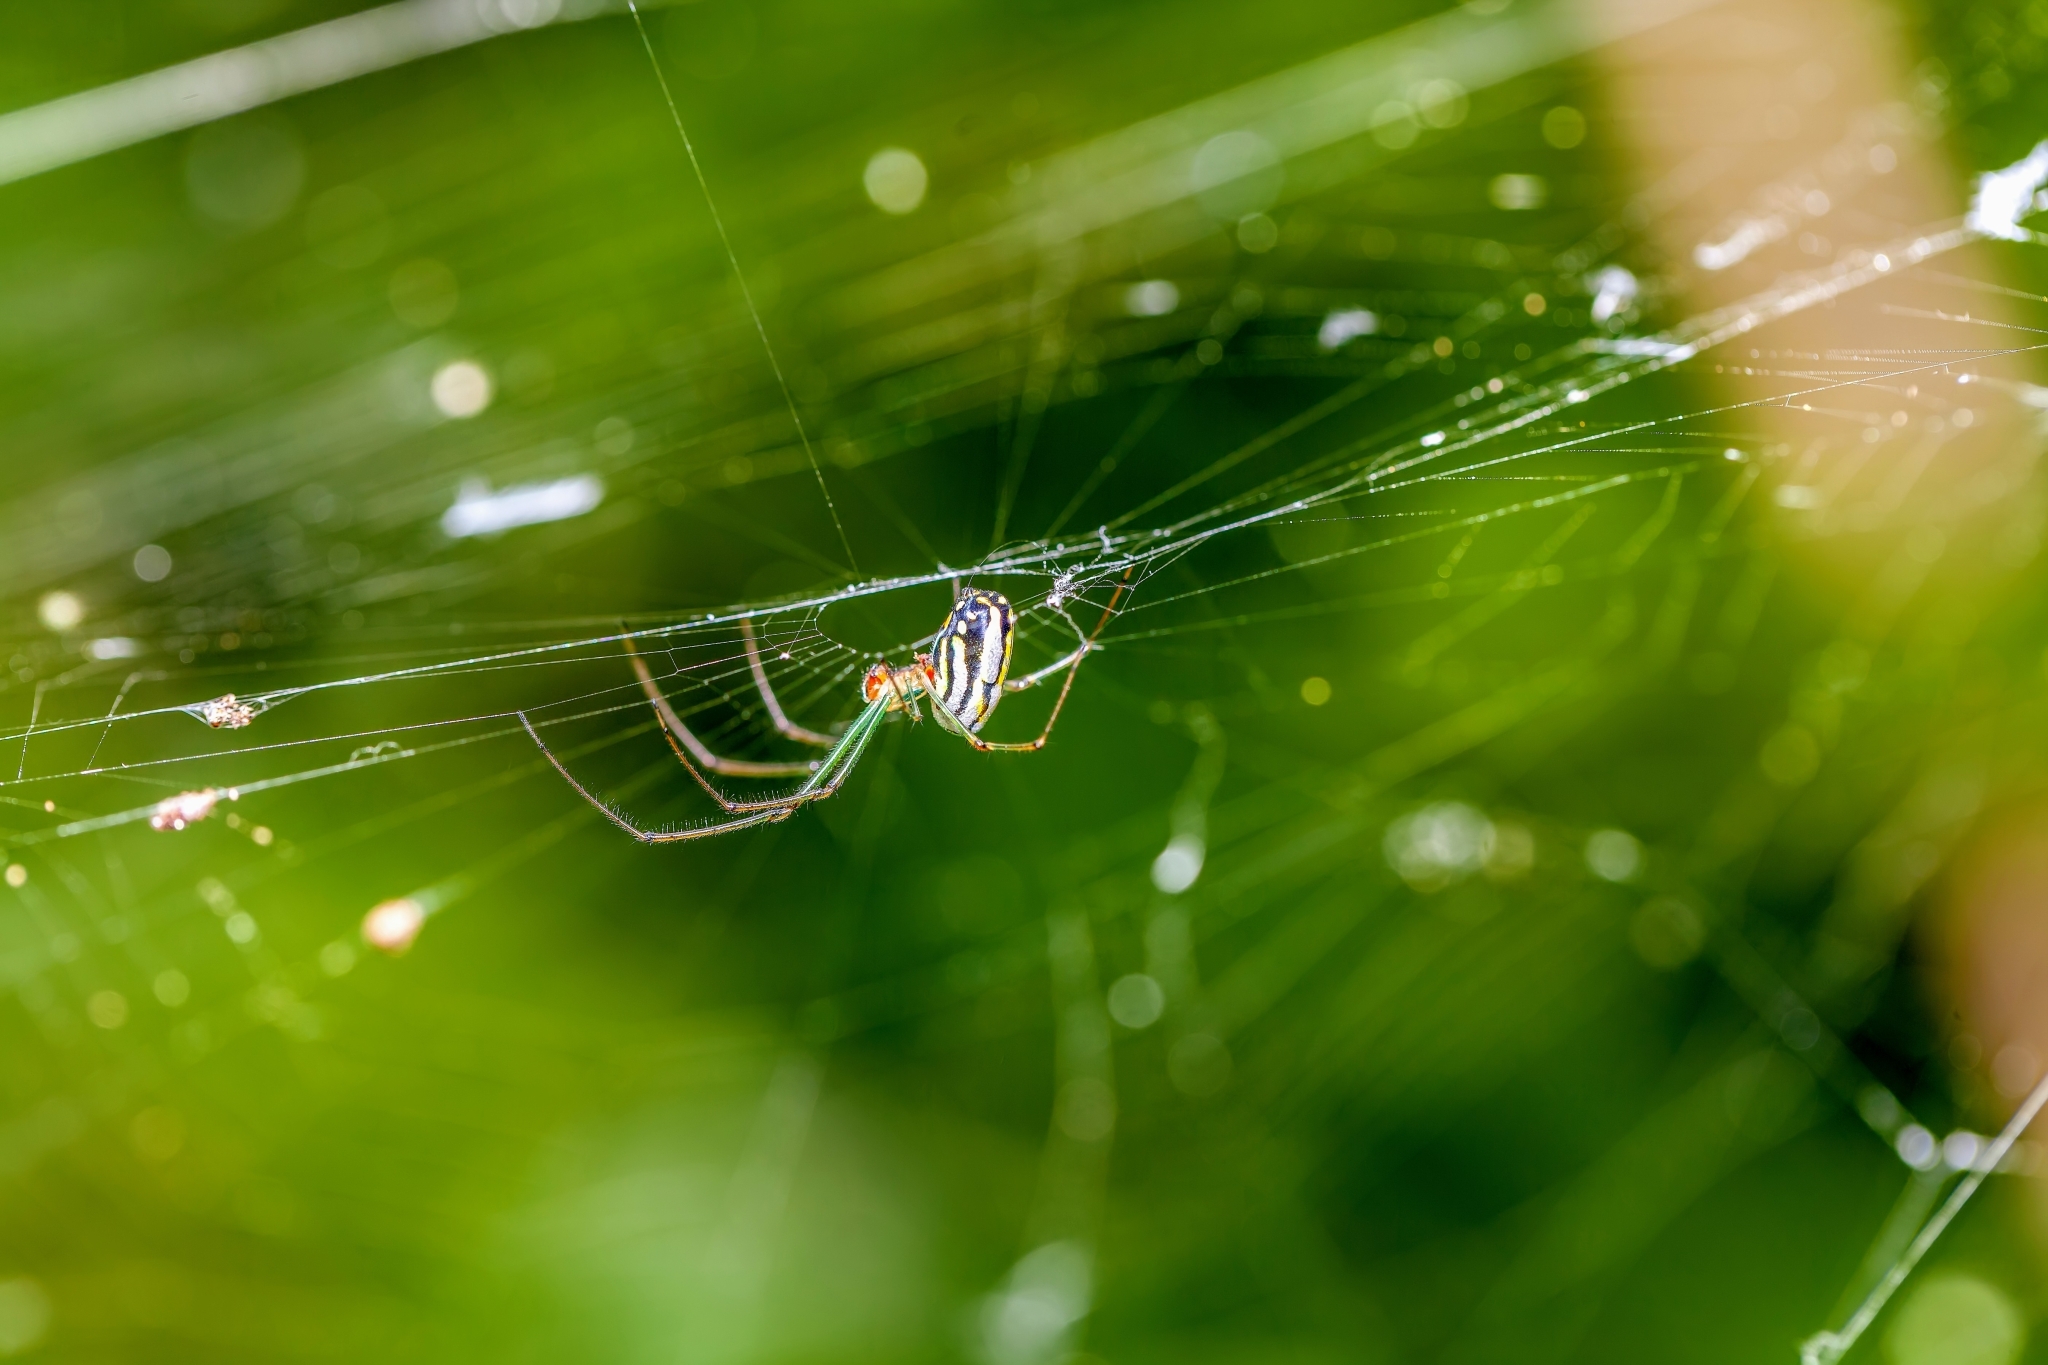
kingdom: Animalia
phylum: Arthropoda
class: Arachnida
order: Araneae
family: Tetragnathidae
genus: Leucauge
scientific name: Leucauge argyra
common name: Longjawed orb weavers
